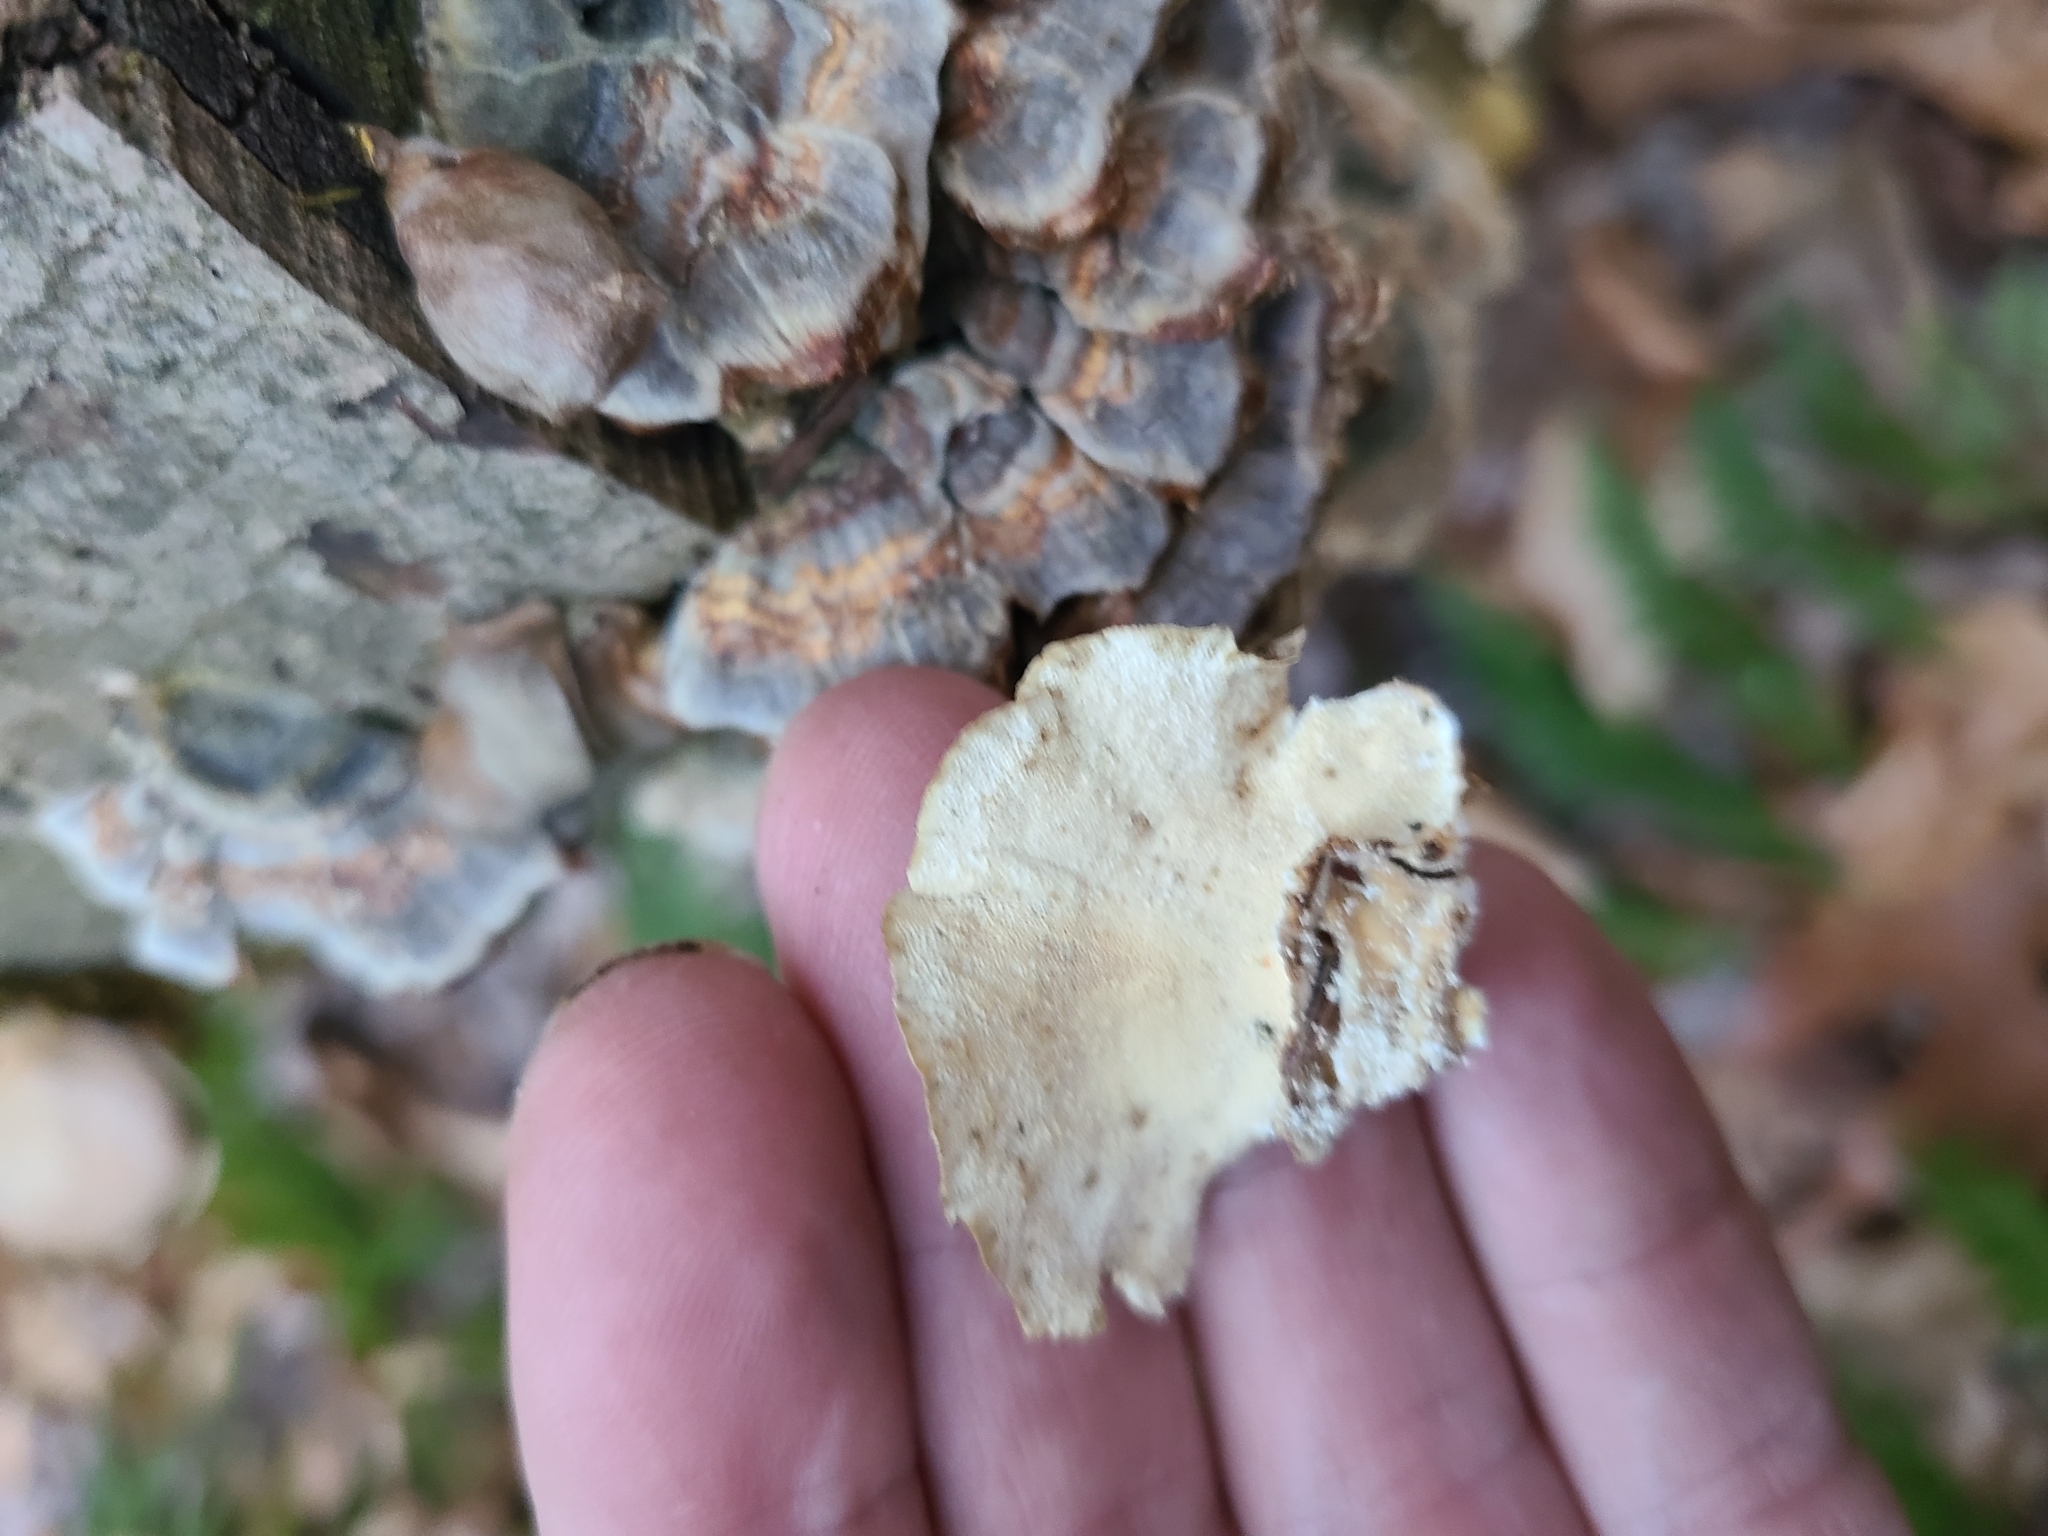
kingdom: Fungi
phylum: Basidiomycota
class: Agaricomycetes
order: Polyporales
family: Polyporaceae
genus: Trametes
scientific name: Trametes versicolor
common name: Turkeytail
